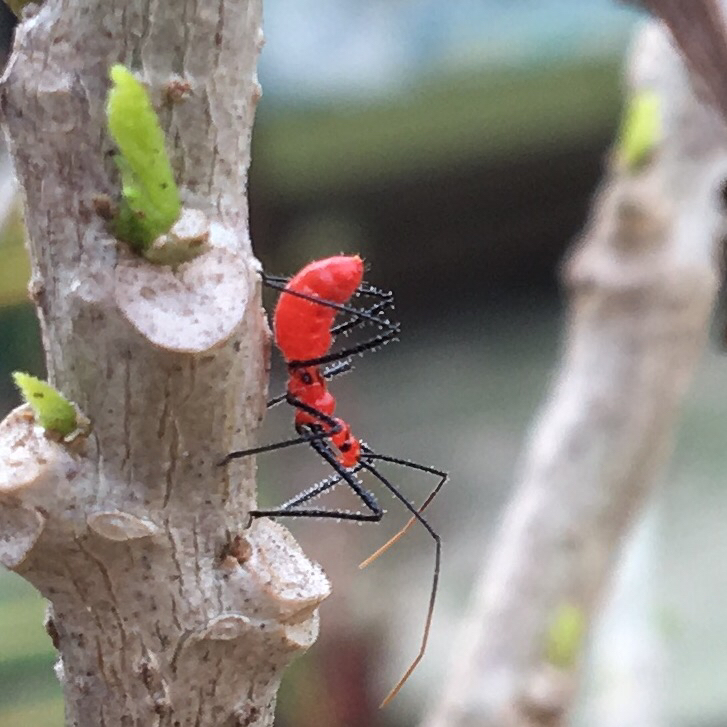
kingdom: Animalia
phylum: Arthropoda
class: Insecta
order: Hemiptera
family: Reduviidae
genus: Zelus
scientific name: Zelus longipes
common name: Milkweed assassin bug
